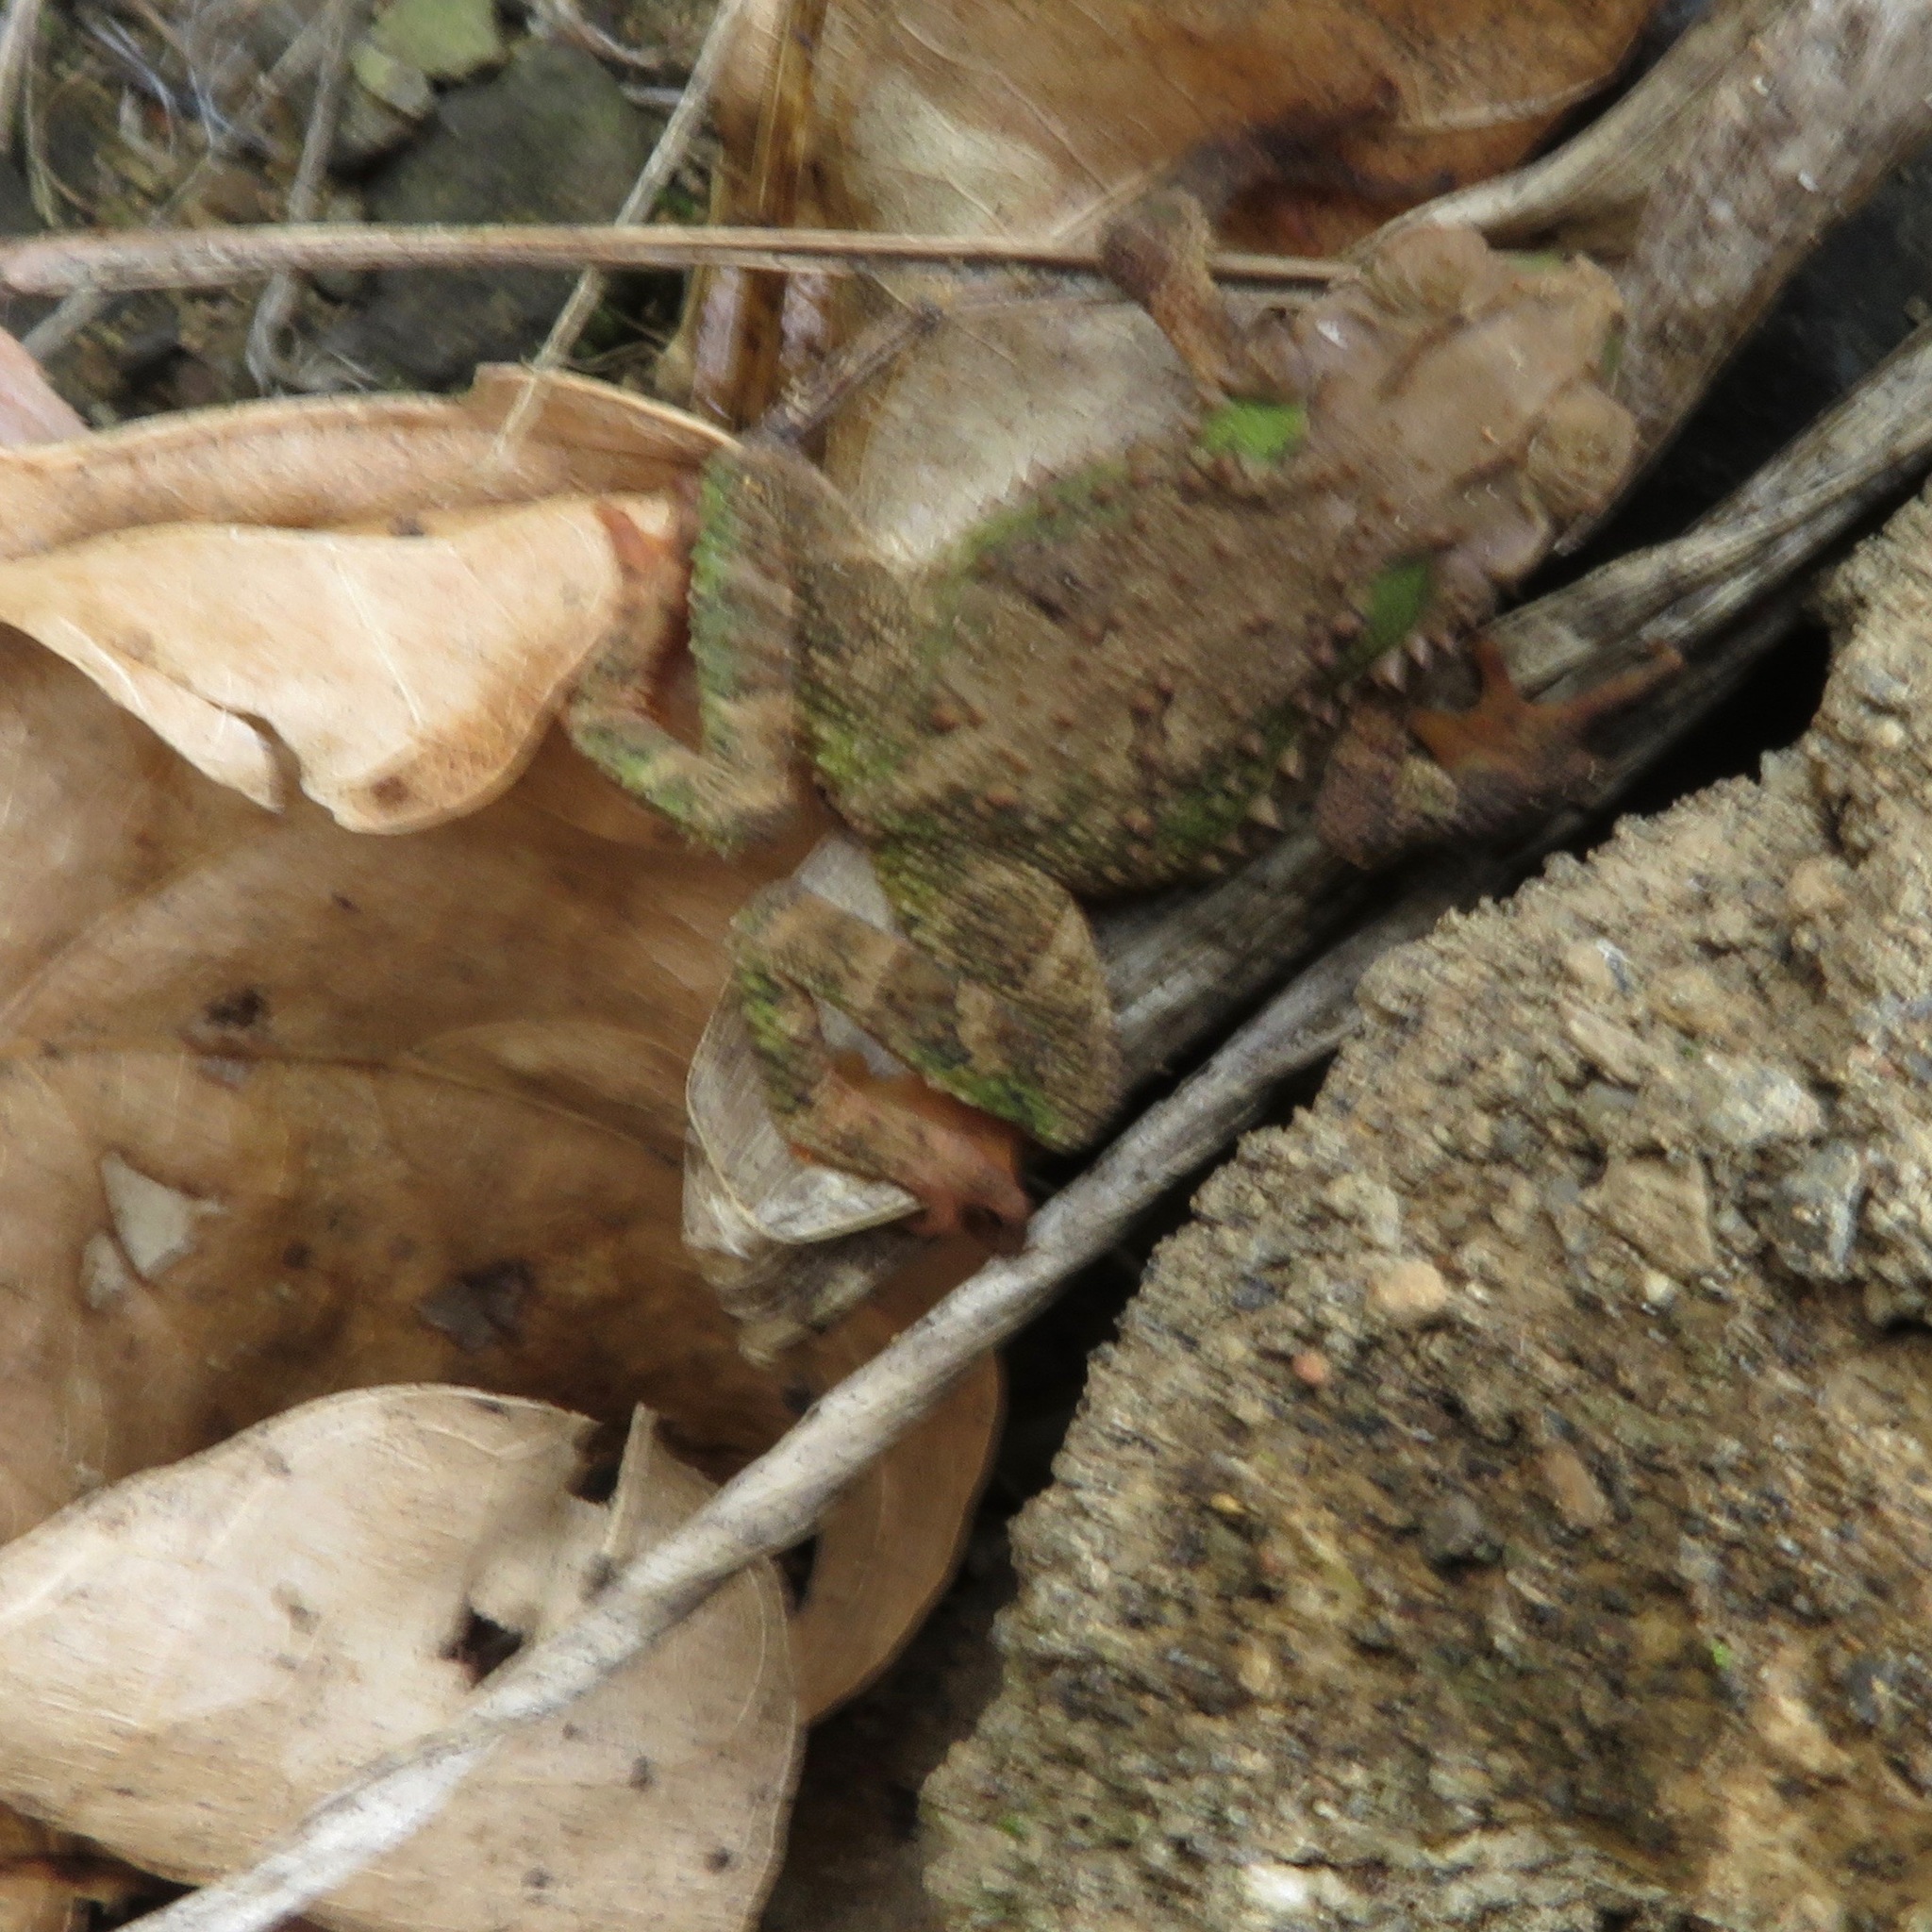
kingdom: Animalia
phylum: Chordata
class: Amphibia
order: Anura
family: Bufonidae
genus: Incilius
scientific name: Incilius coniferus
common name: Evergreen toad
